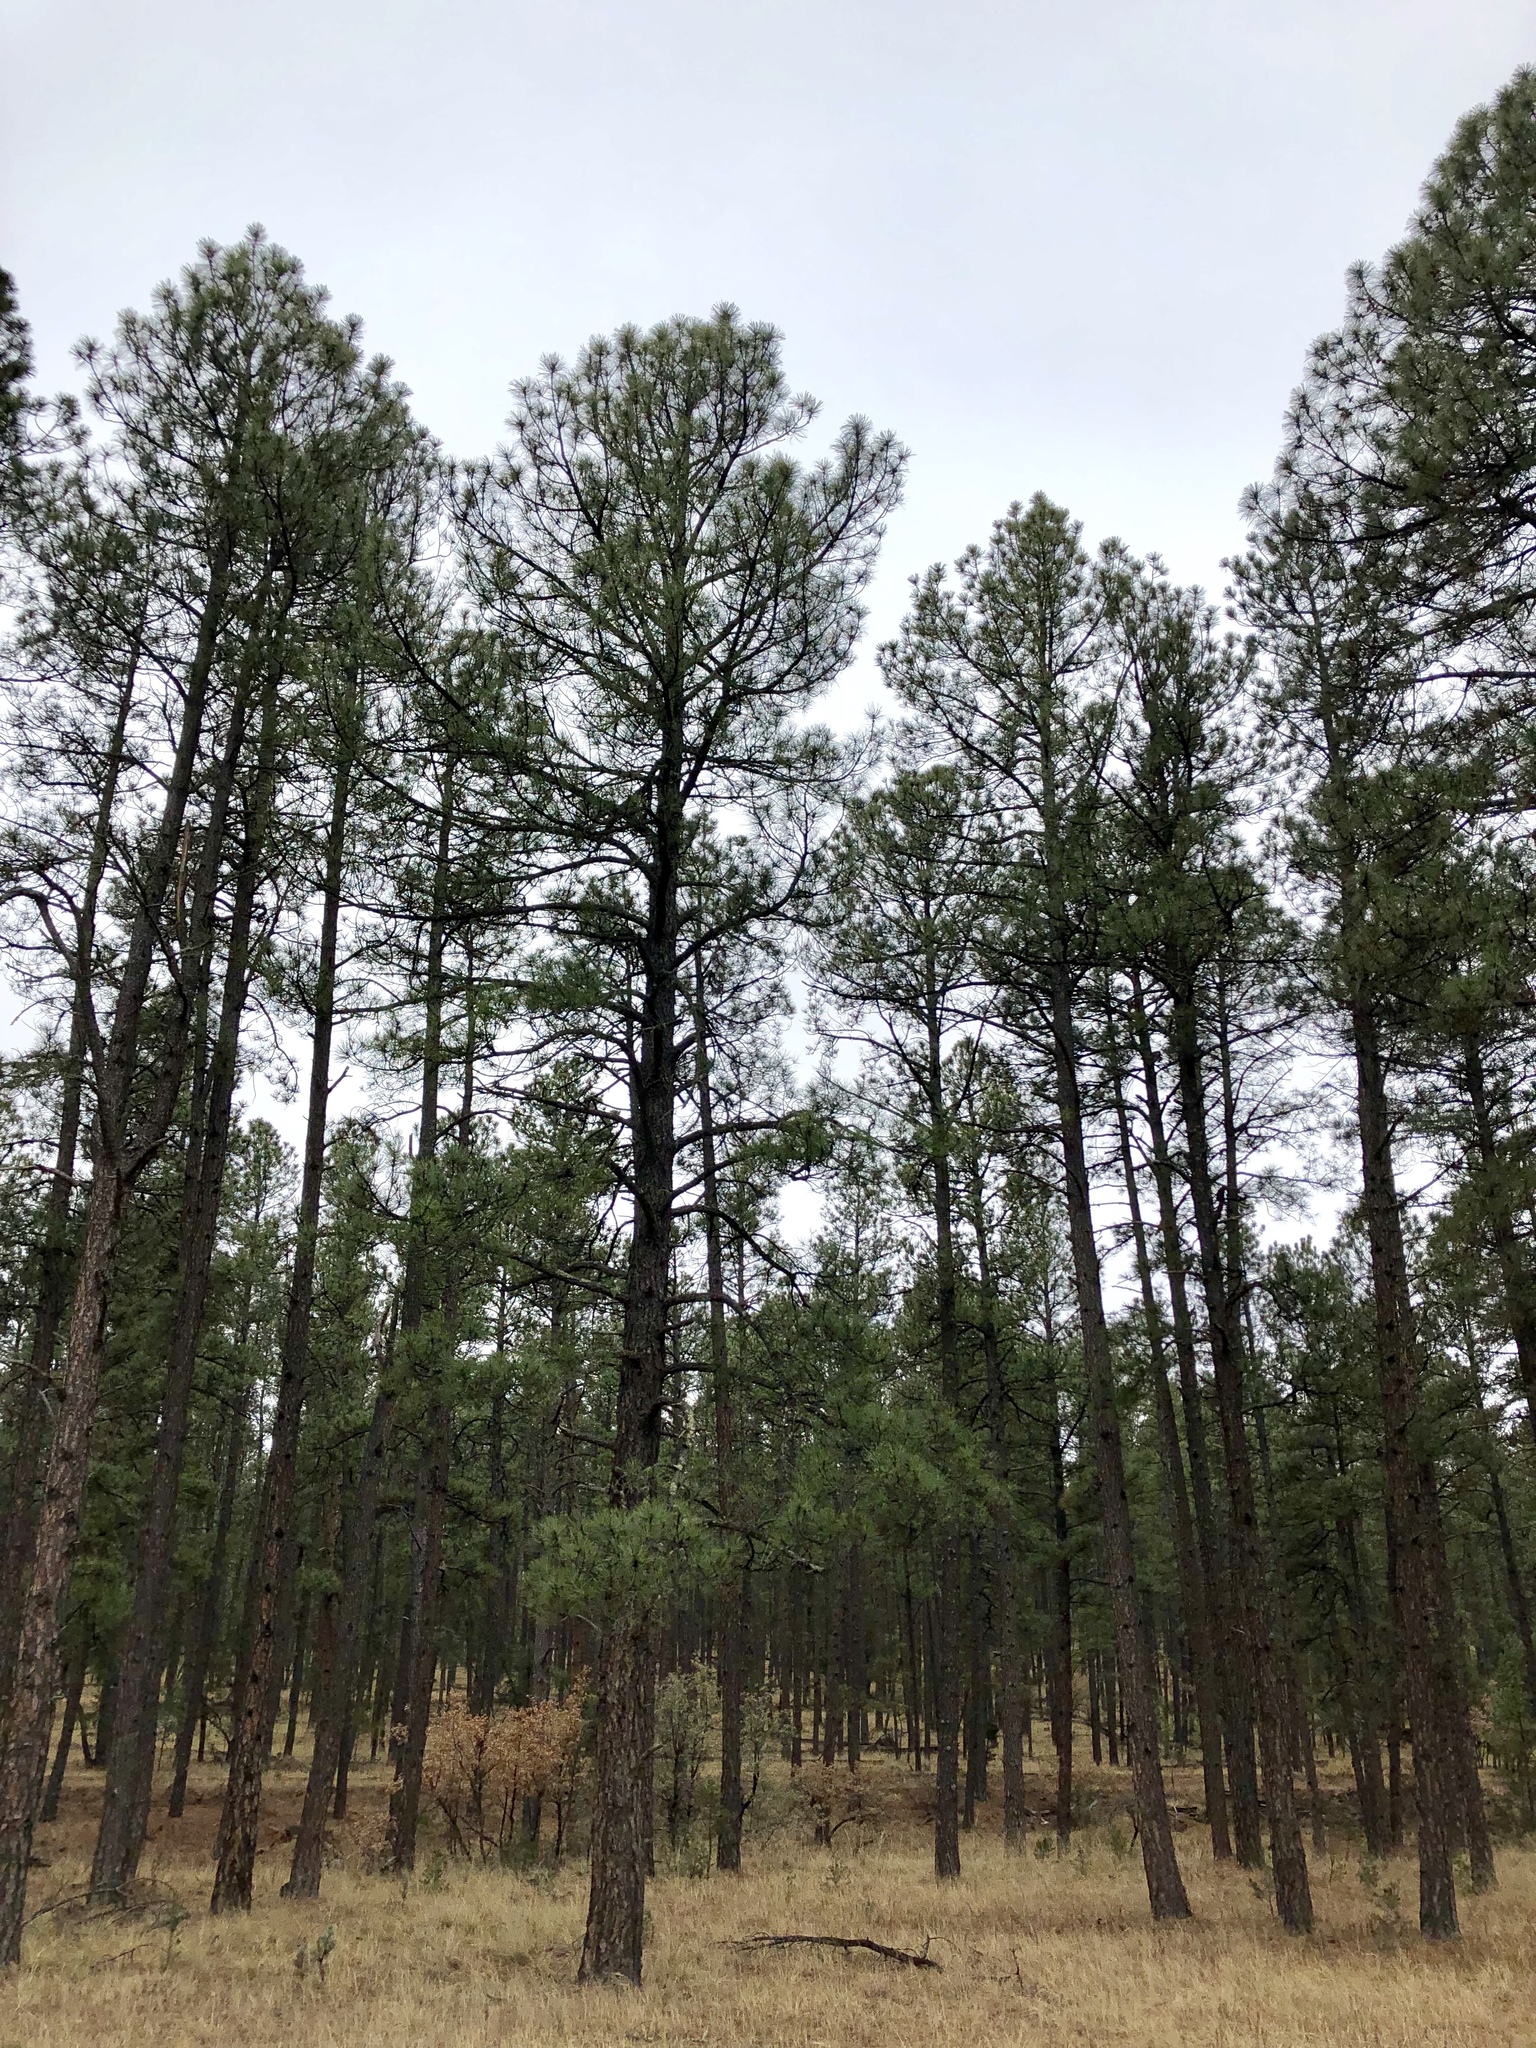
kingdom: Plantae
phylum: Tracheophyta
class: Pinopsida
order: Pinales
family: Pinaceae
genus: Pinus
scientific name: Pinus ponderosa
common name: Western yellow-pine
